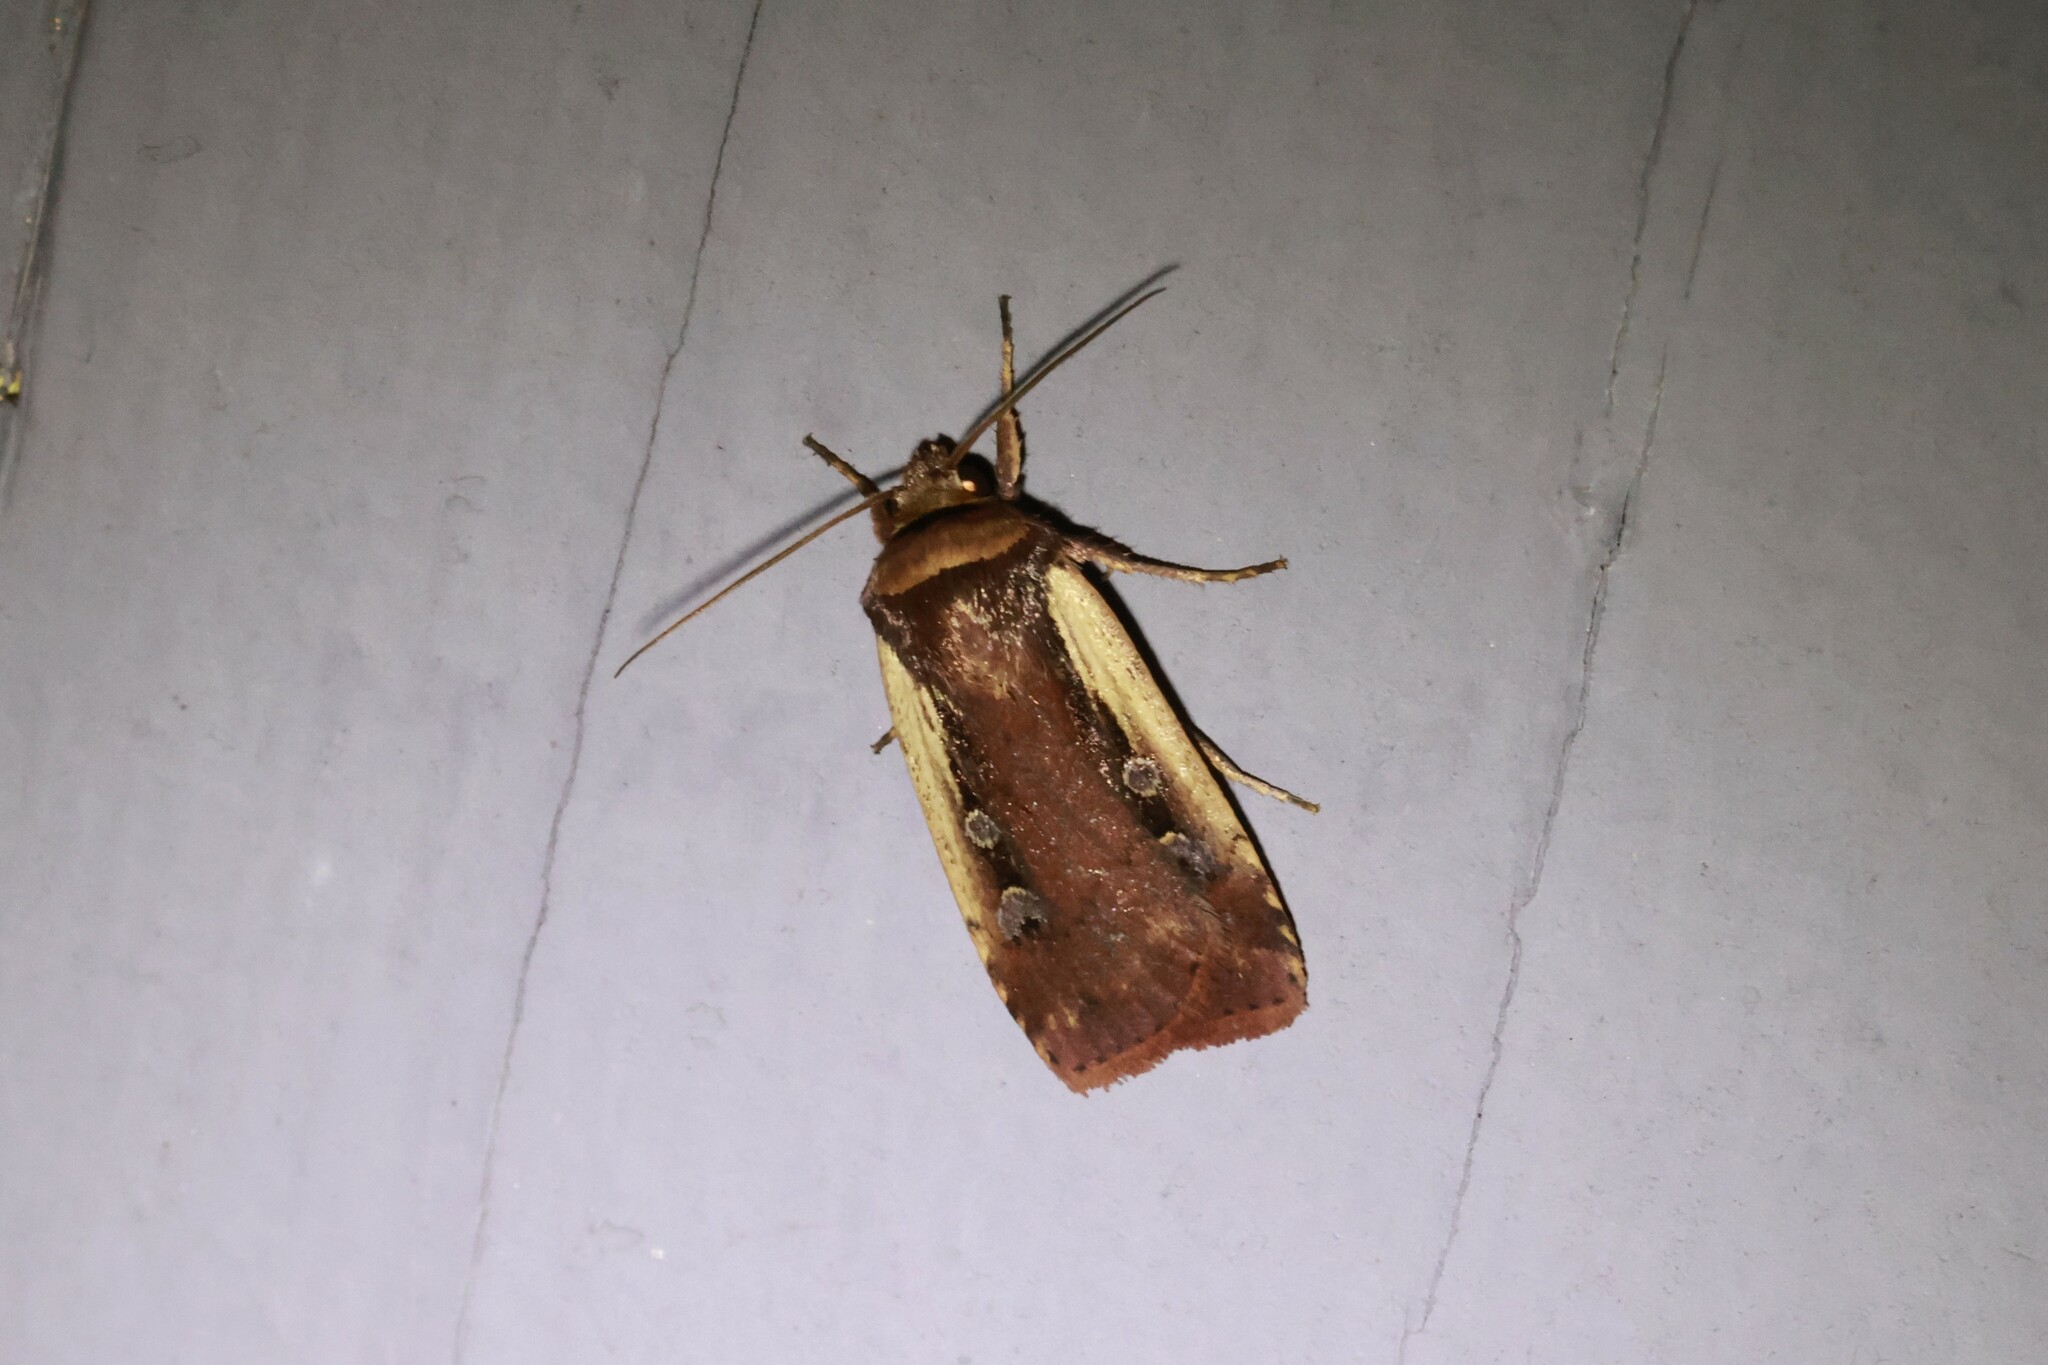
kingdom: Animalia
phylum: Arthropoda
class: Insecta
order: Lepidoptera
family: Noctuidae
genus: Ochropleura
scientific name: Ochropleura implecta
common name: Flame-shouldered dart
